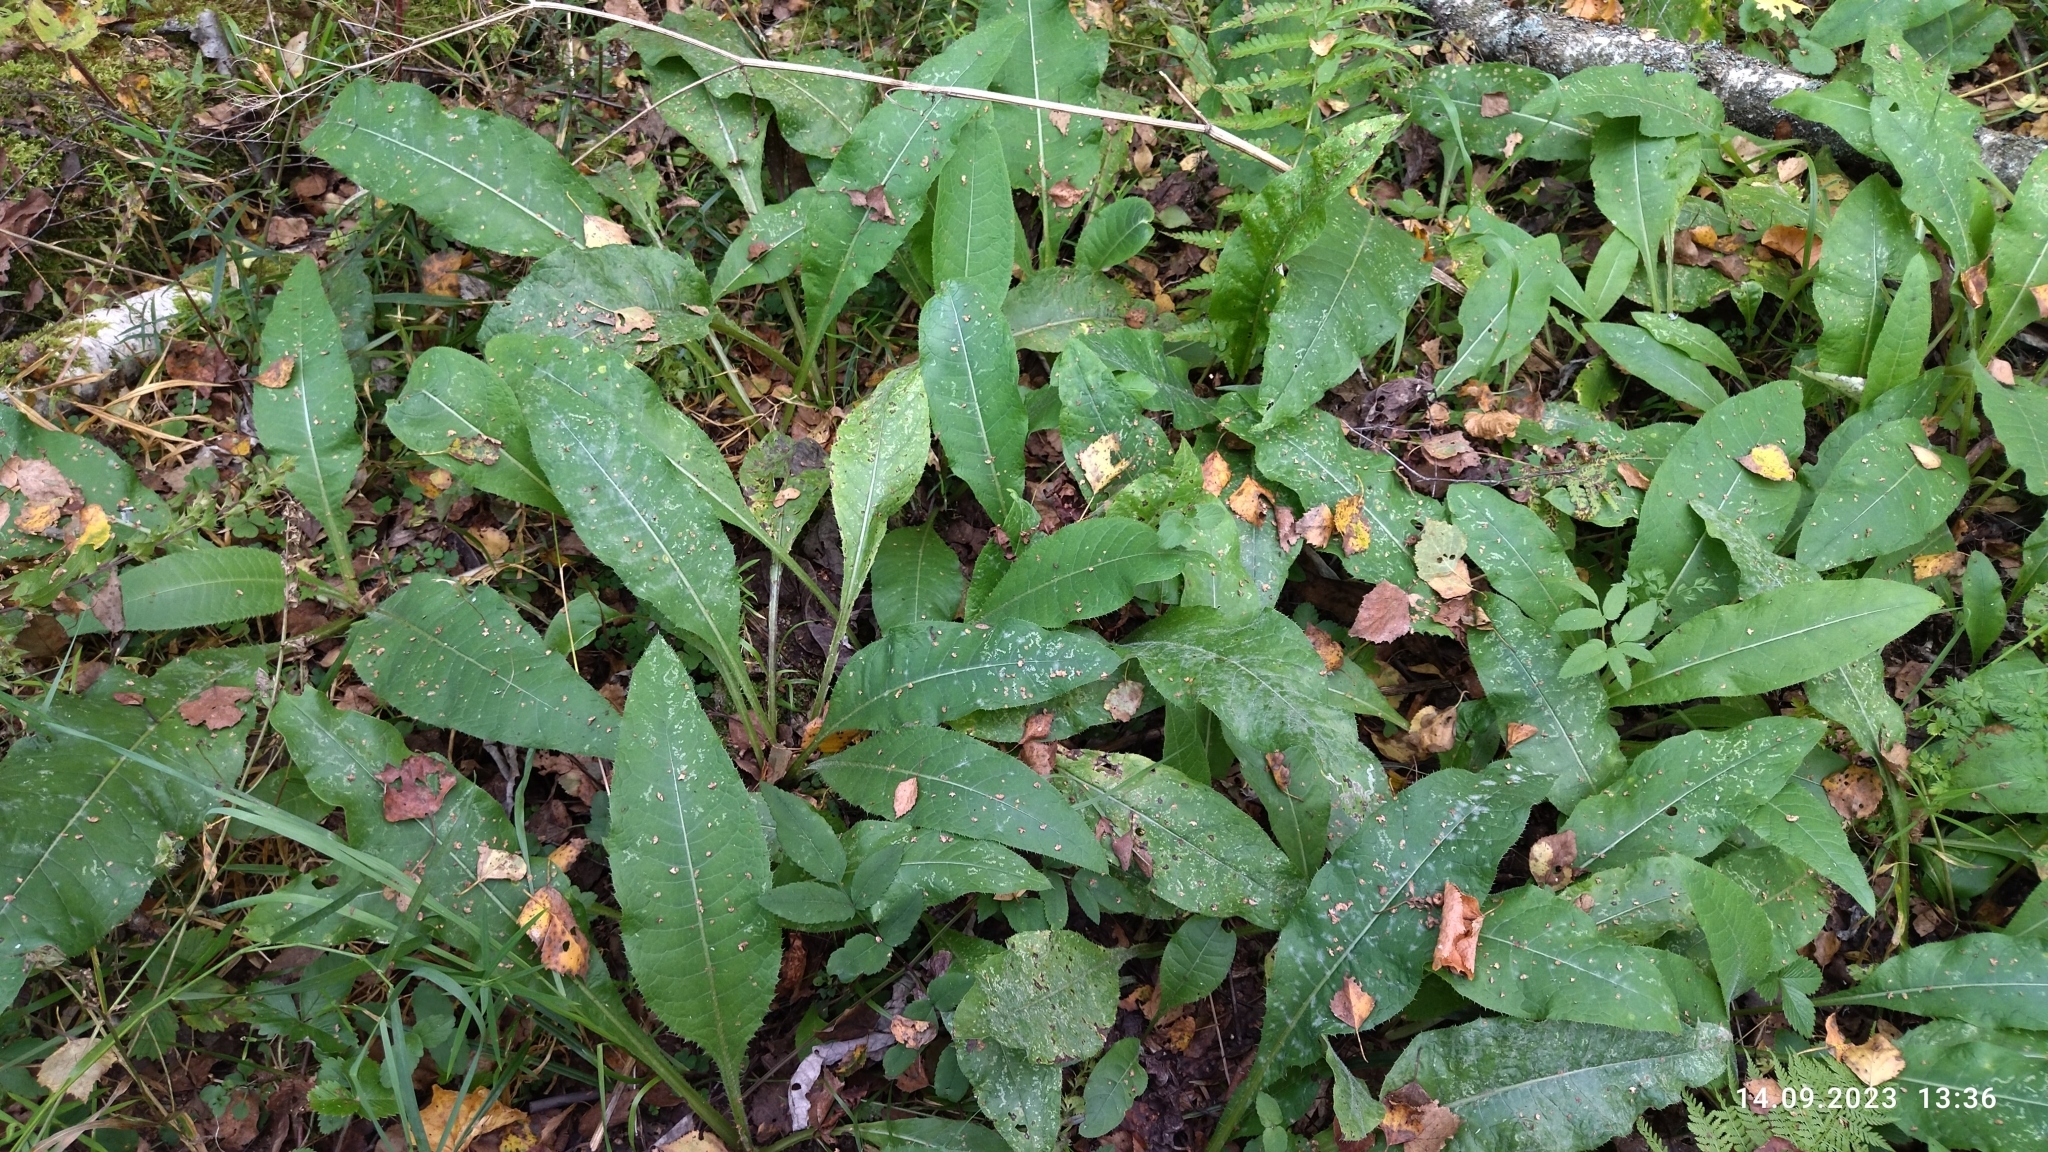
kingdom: Plantae
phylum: Tracheophyta
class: Magnoliopsida
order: Asterales
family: Asteraceae
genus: Cirsium
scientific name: Cirsium heterophyllum
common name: Melancholy thistle
